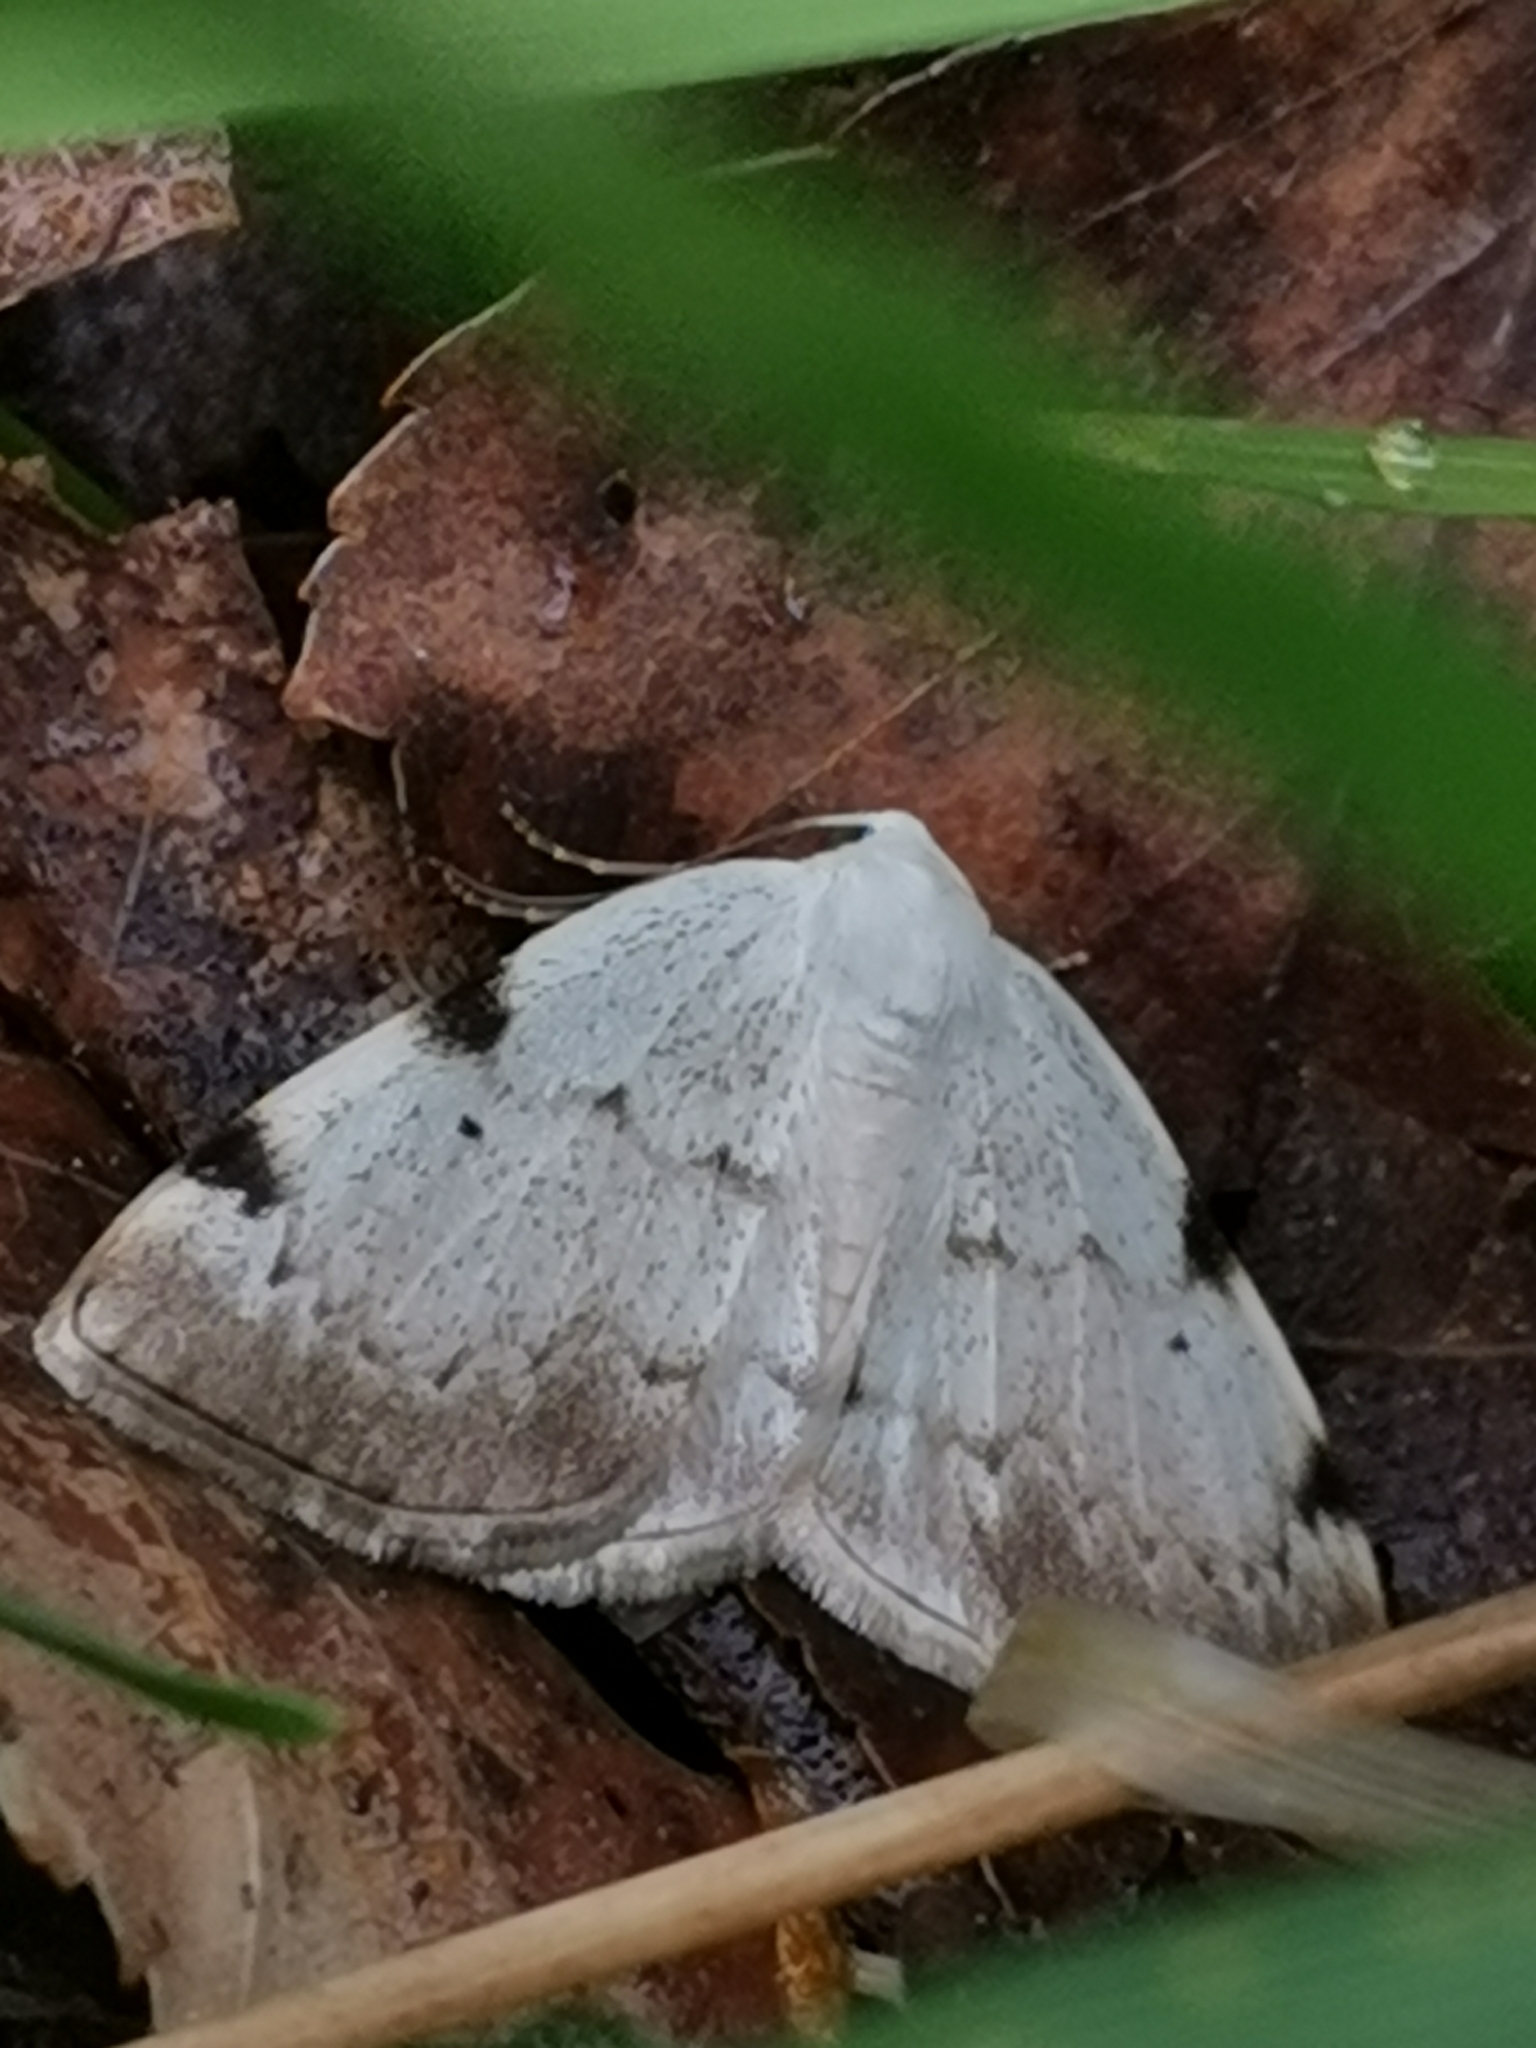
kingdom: Animalia
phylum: Arthropoda
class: Insecta
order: Lepidoptera
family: Geometridae
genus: Lomographa
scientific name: Lomographa bimaculata
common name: White-pinion spotted
